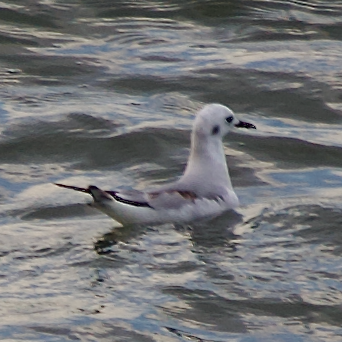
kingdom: Animalia
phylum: Chordata
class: Aves
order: Charadriiformes
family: Laridae
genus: Chroicocephalus
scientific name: Chroicocephalus philadelphia
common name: Bonaparte's gull
